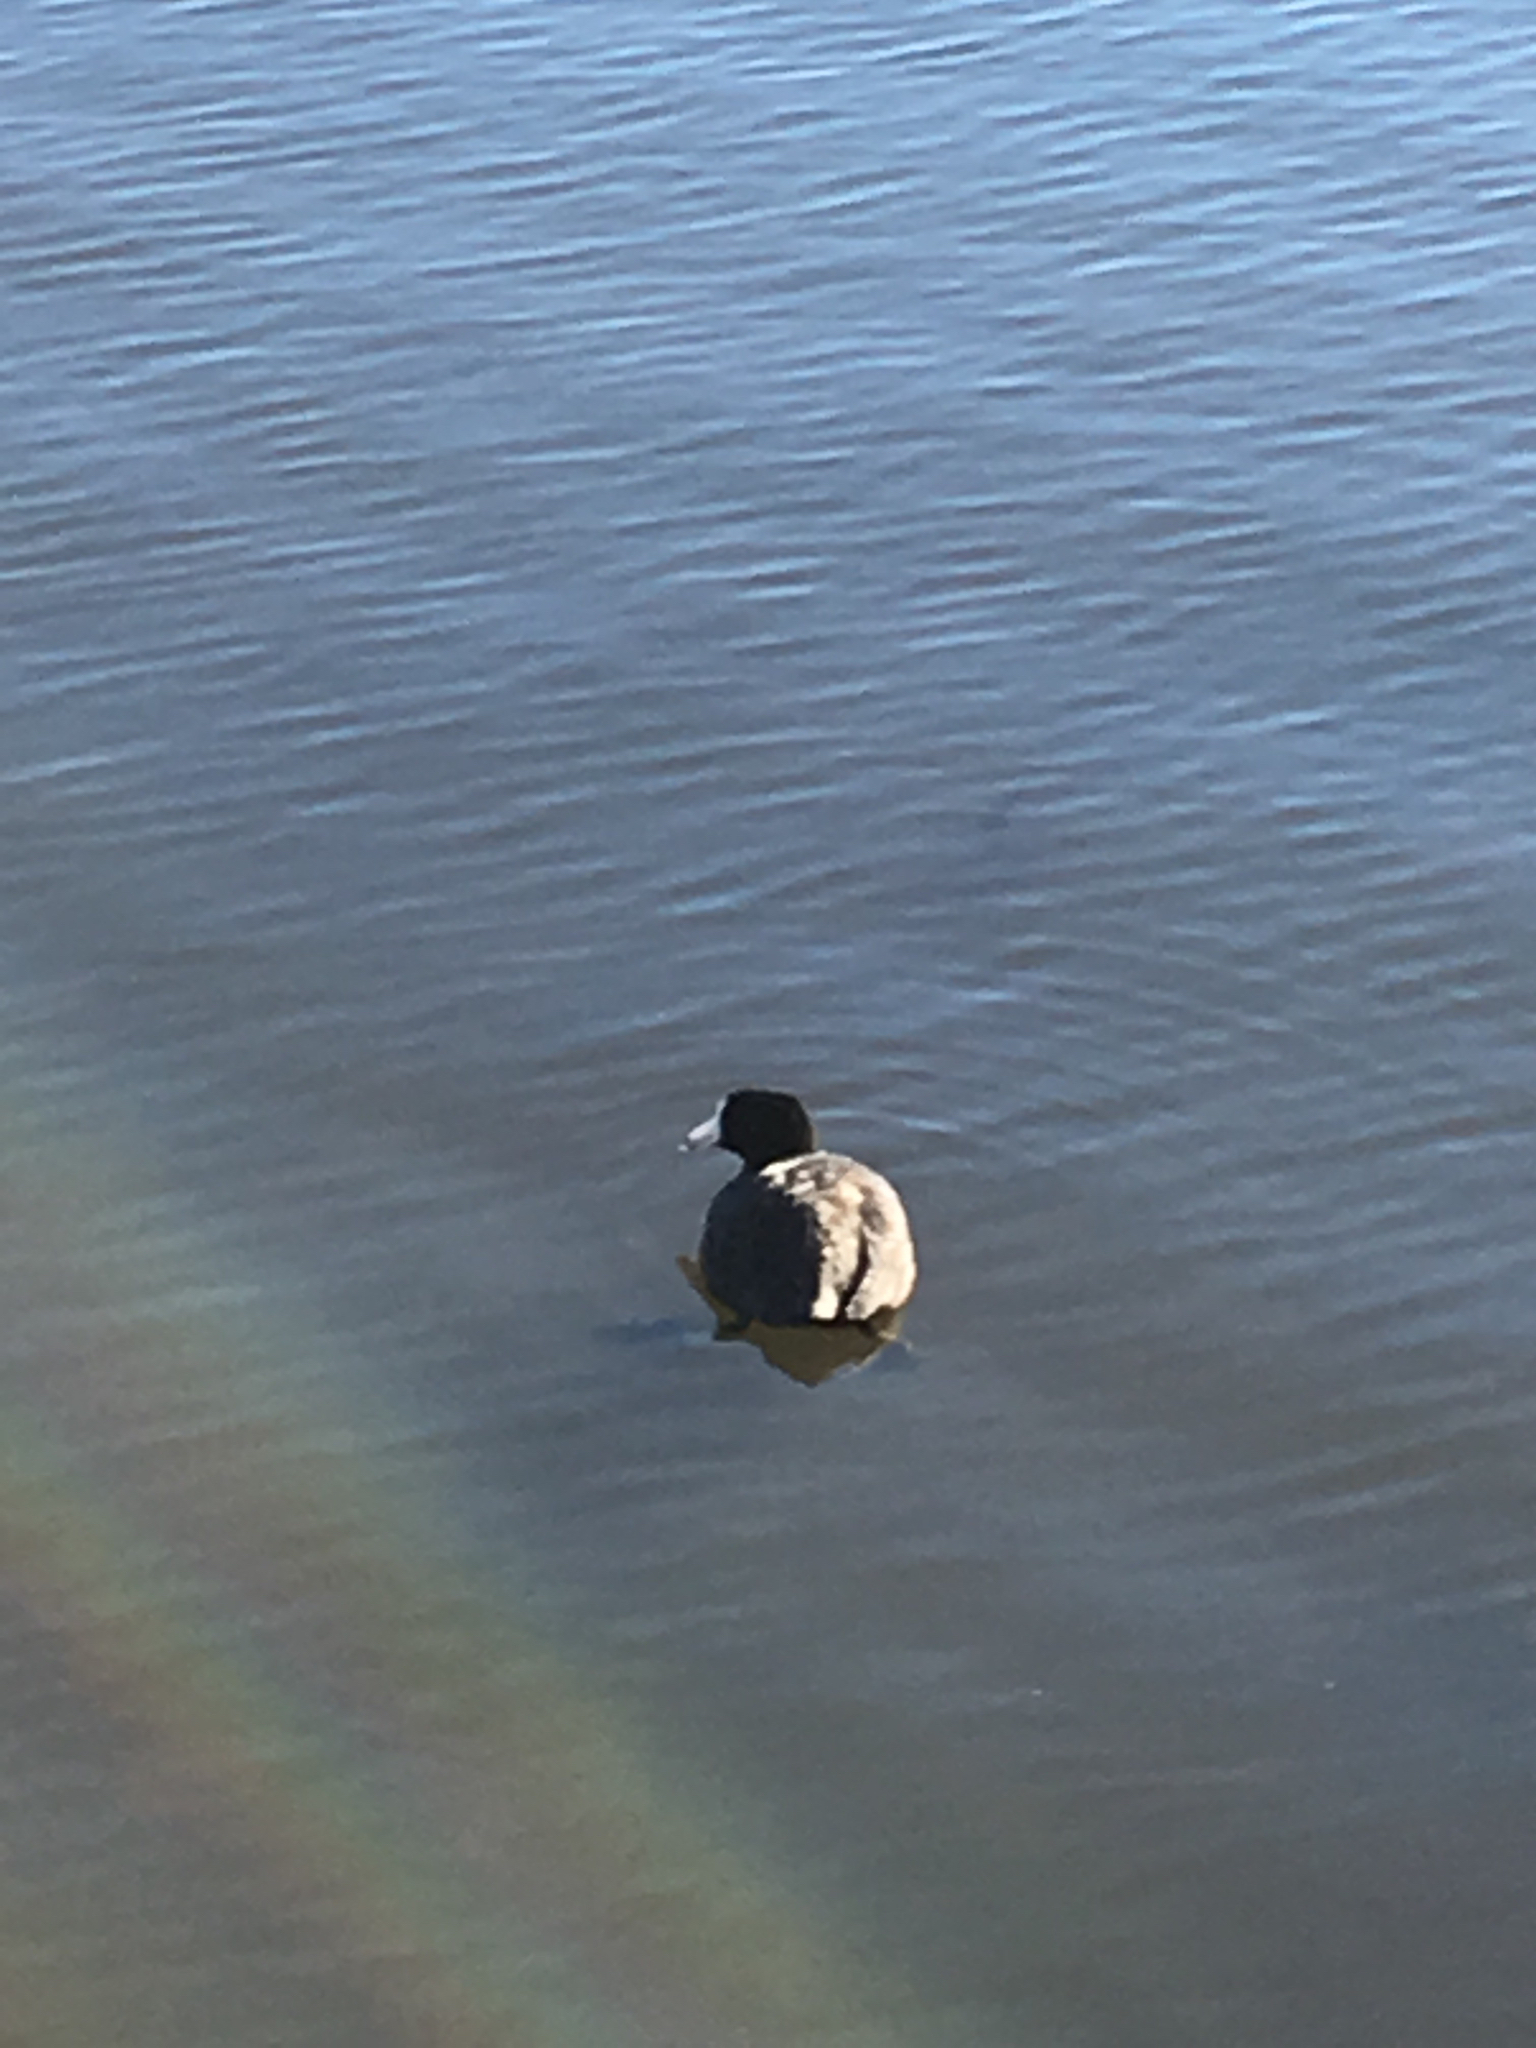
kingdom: Animalia
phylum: Chordata
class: Aves
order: Gruiformes
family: Rallidae
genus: Fulica
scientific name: Fulica americana
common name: American coot
